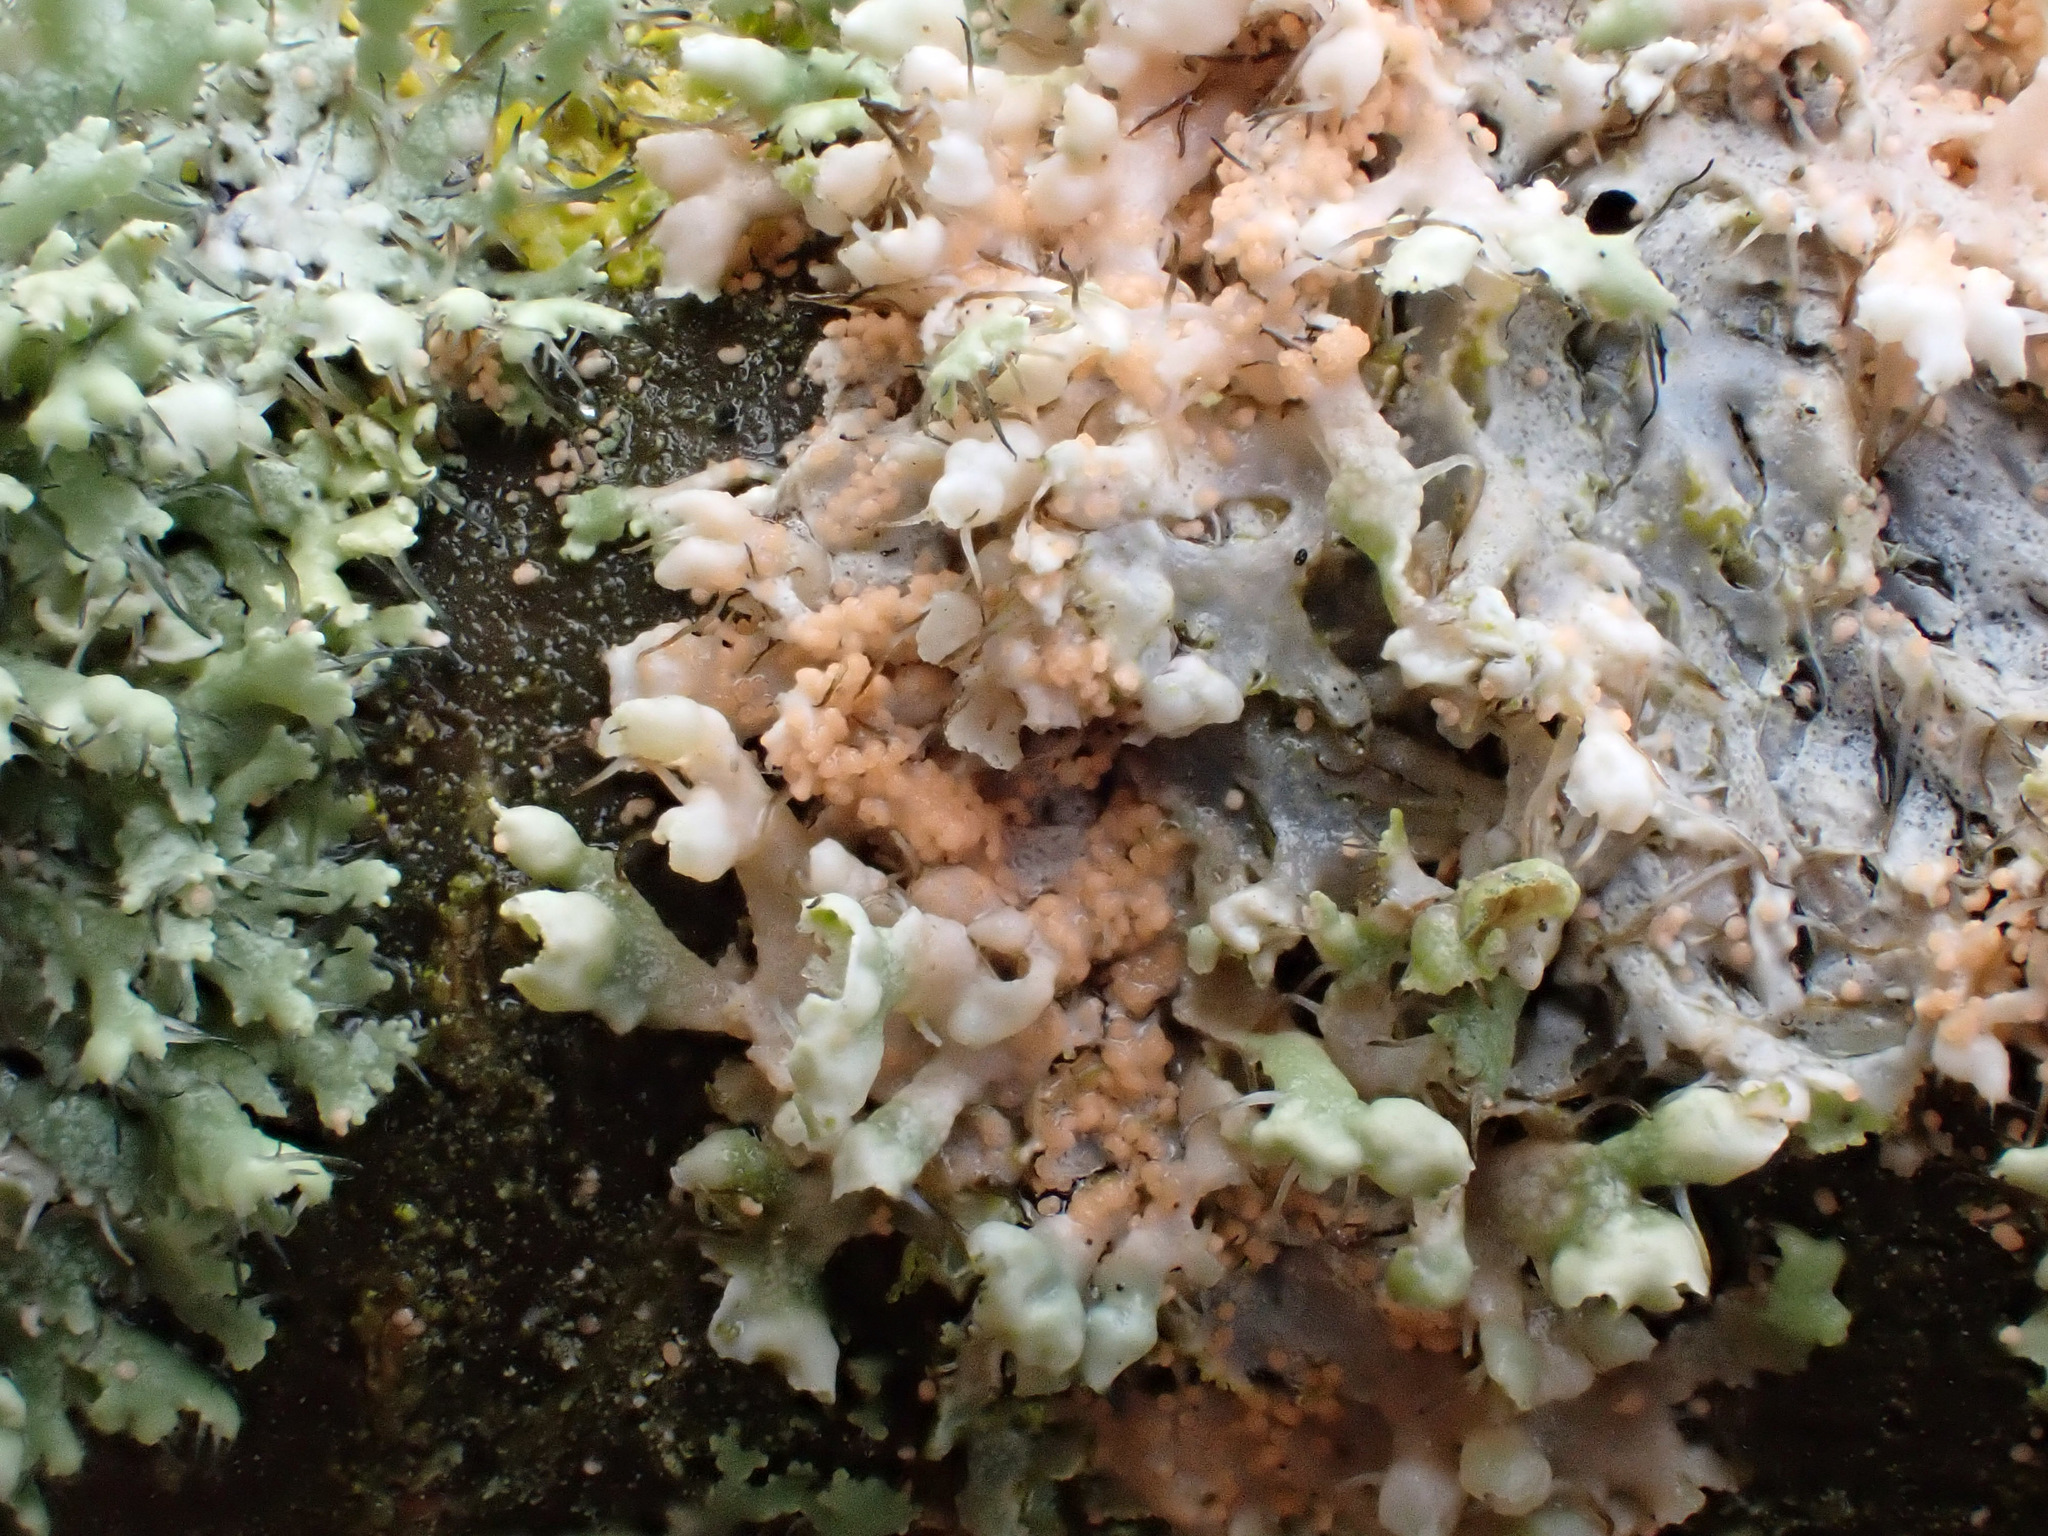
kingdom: Fungi
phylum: Basidiomycota
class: Agaricomycetes
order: Corticiales
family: Corticiaceae
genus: Erythricium
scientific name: Erythricium aurantiacum
